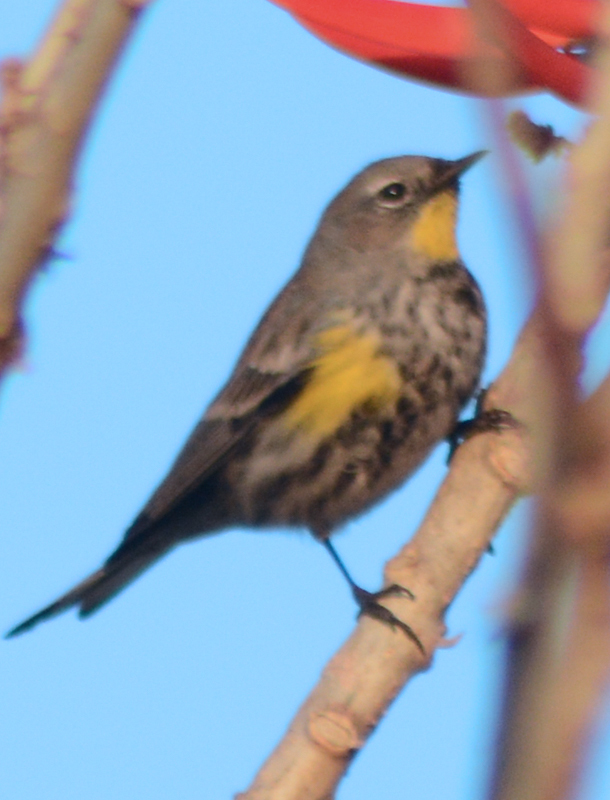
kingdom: Animalia
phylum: Chordata
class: Aves
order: Passeriformes
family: Parulidae
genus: Setophaga
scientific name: Setophaga coronata
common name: Myrtle warbler
